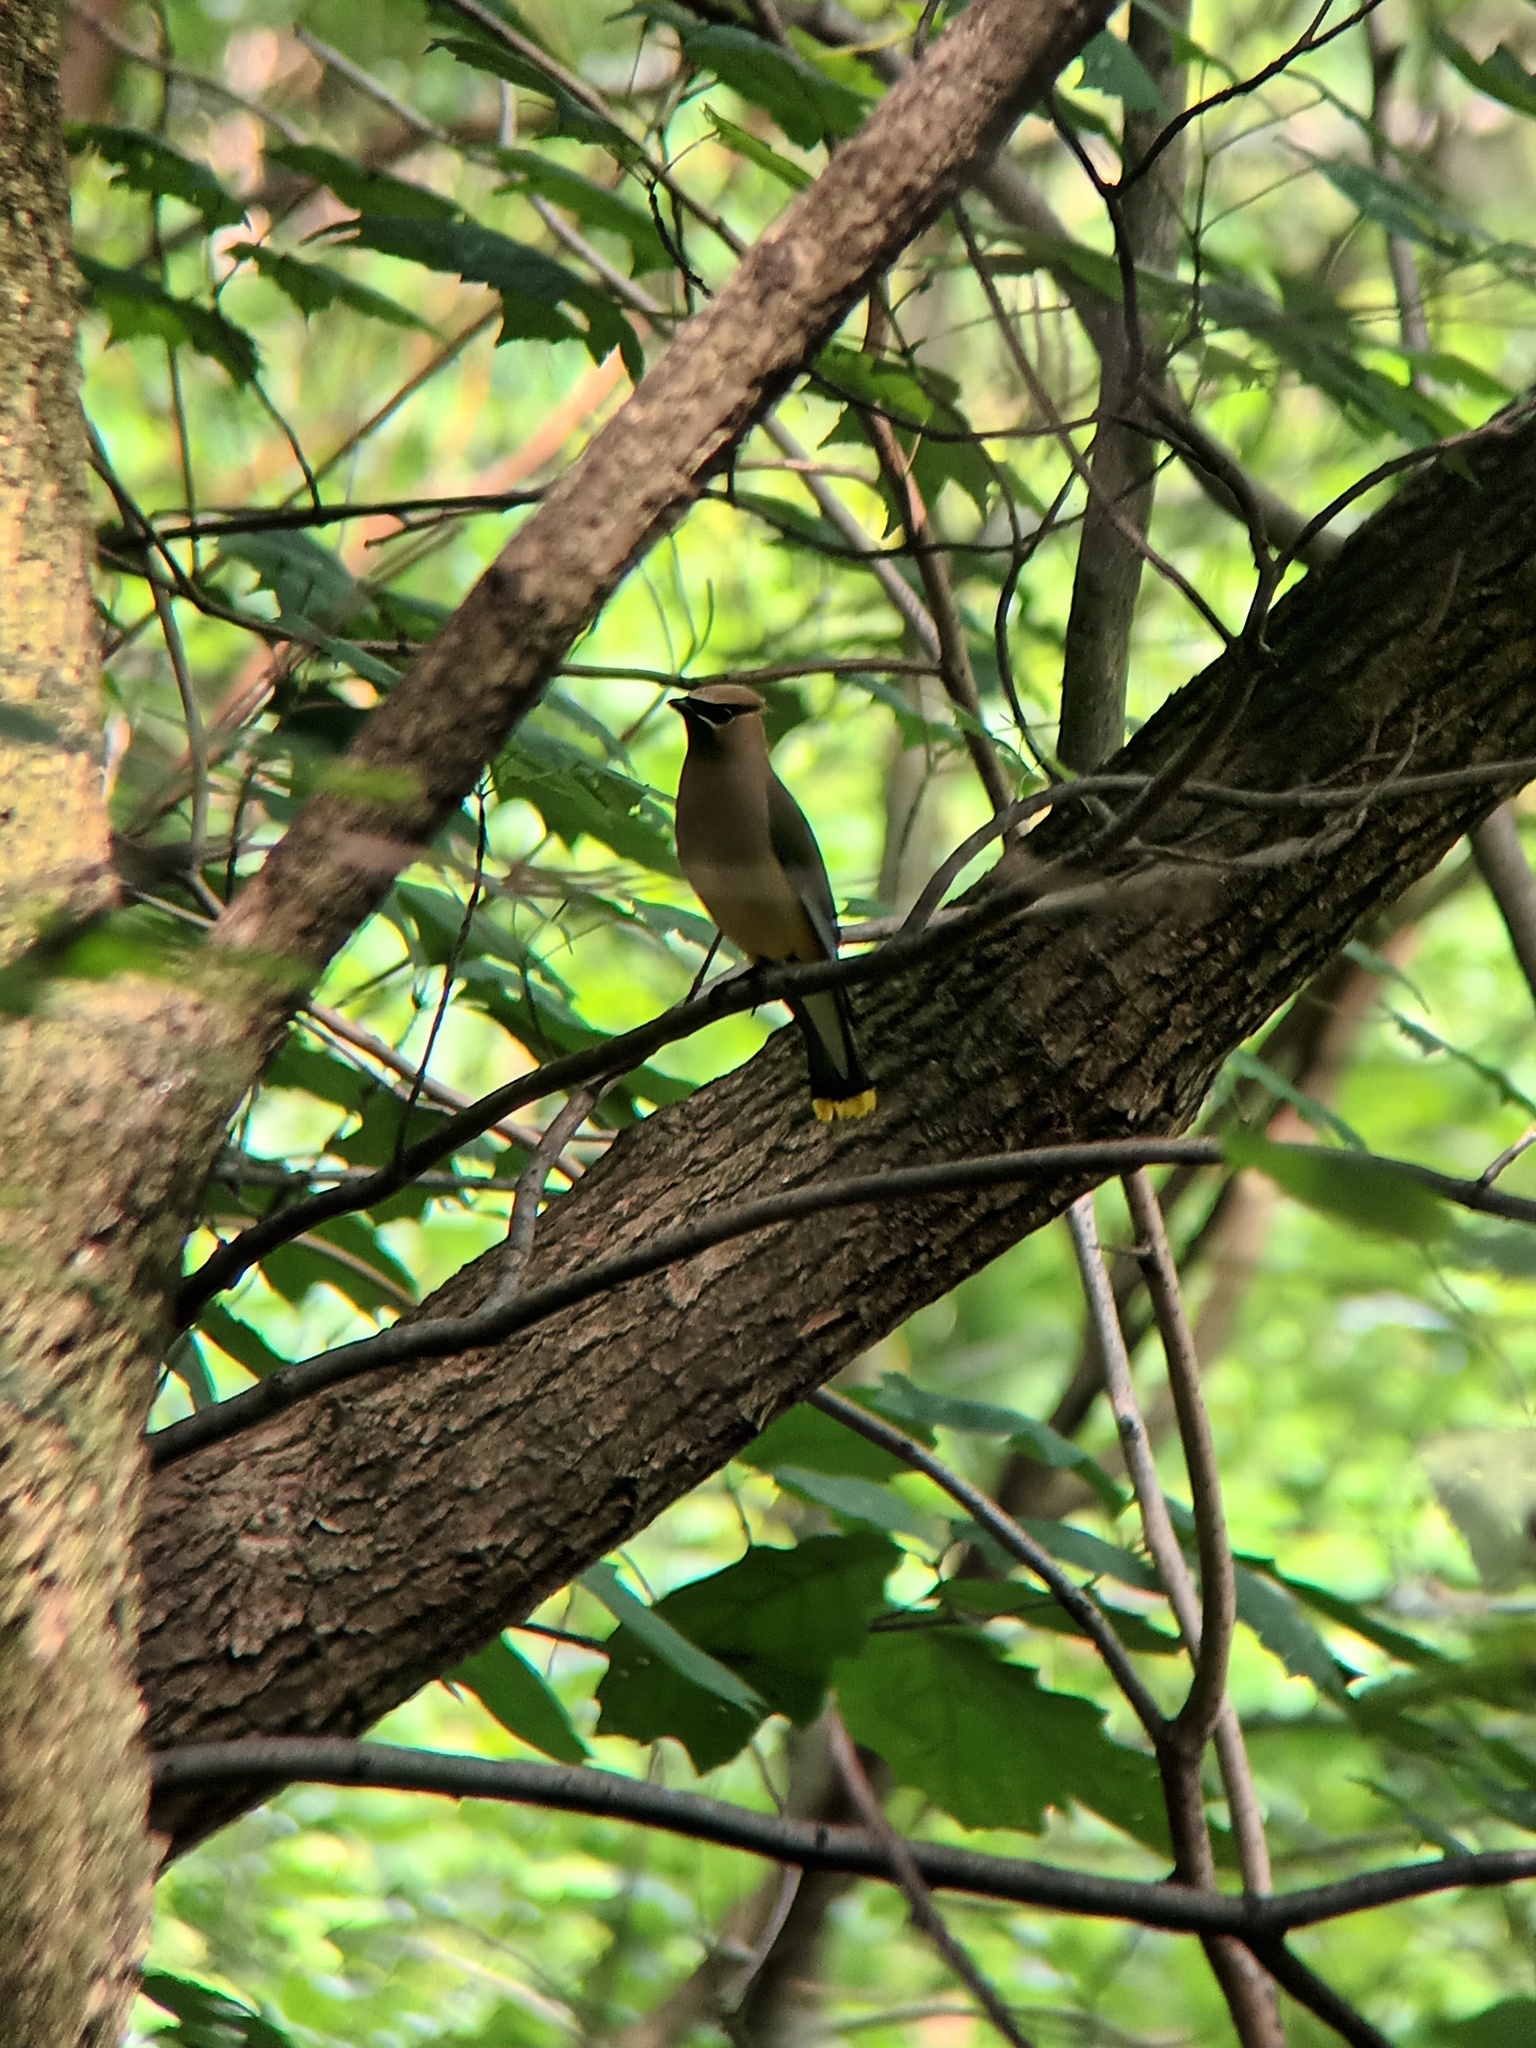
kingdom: Animalia
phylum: Chordata
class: Aves
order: Passeriformes
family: Bombycillidae
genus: Bombycilla
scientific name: Bombycilla cedrorum
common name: Cedar waxwing
